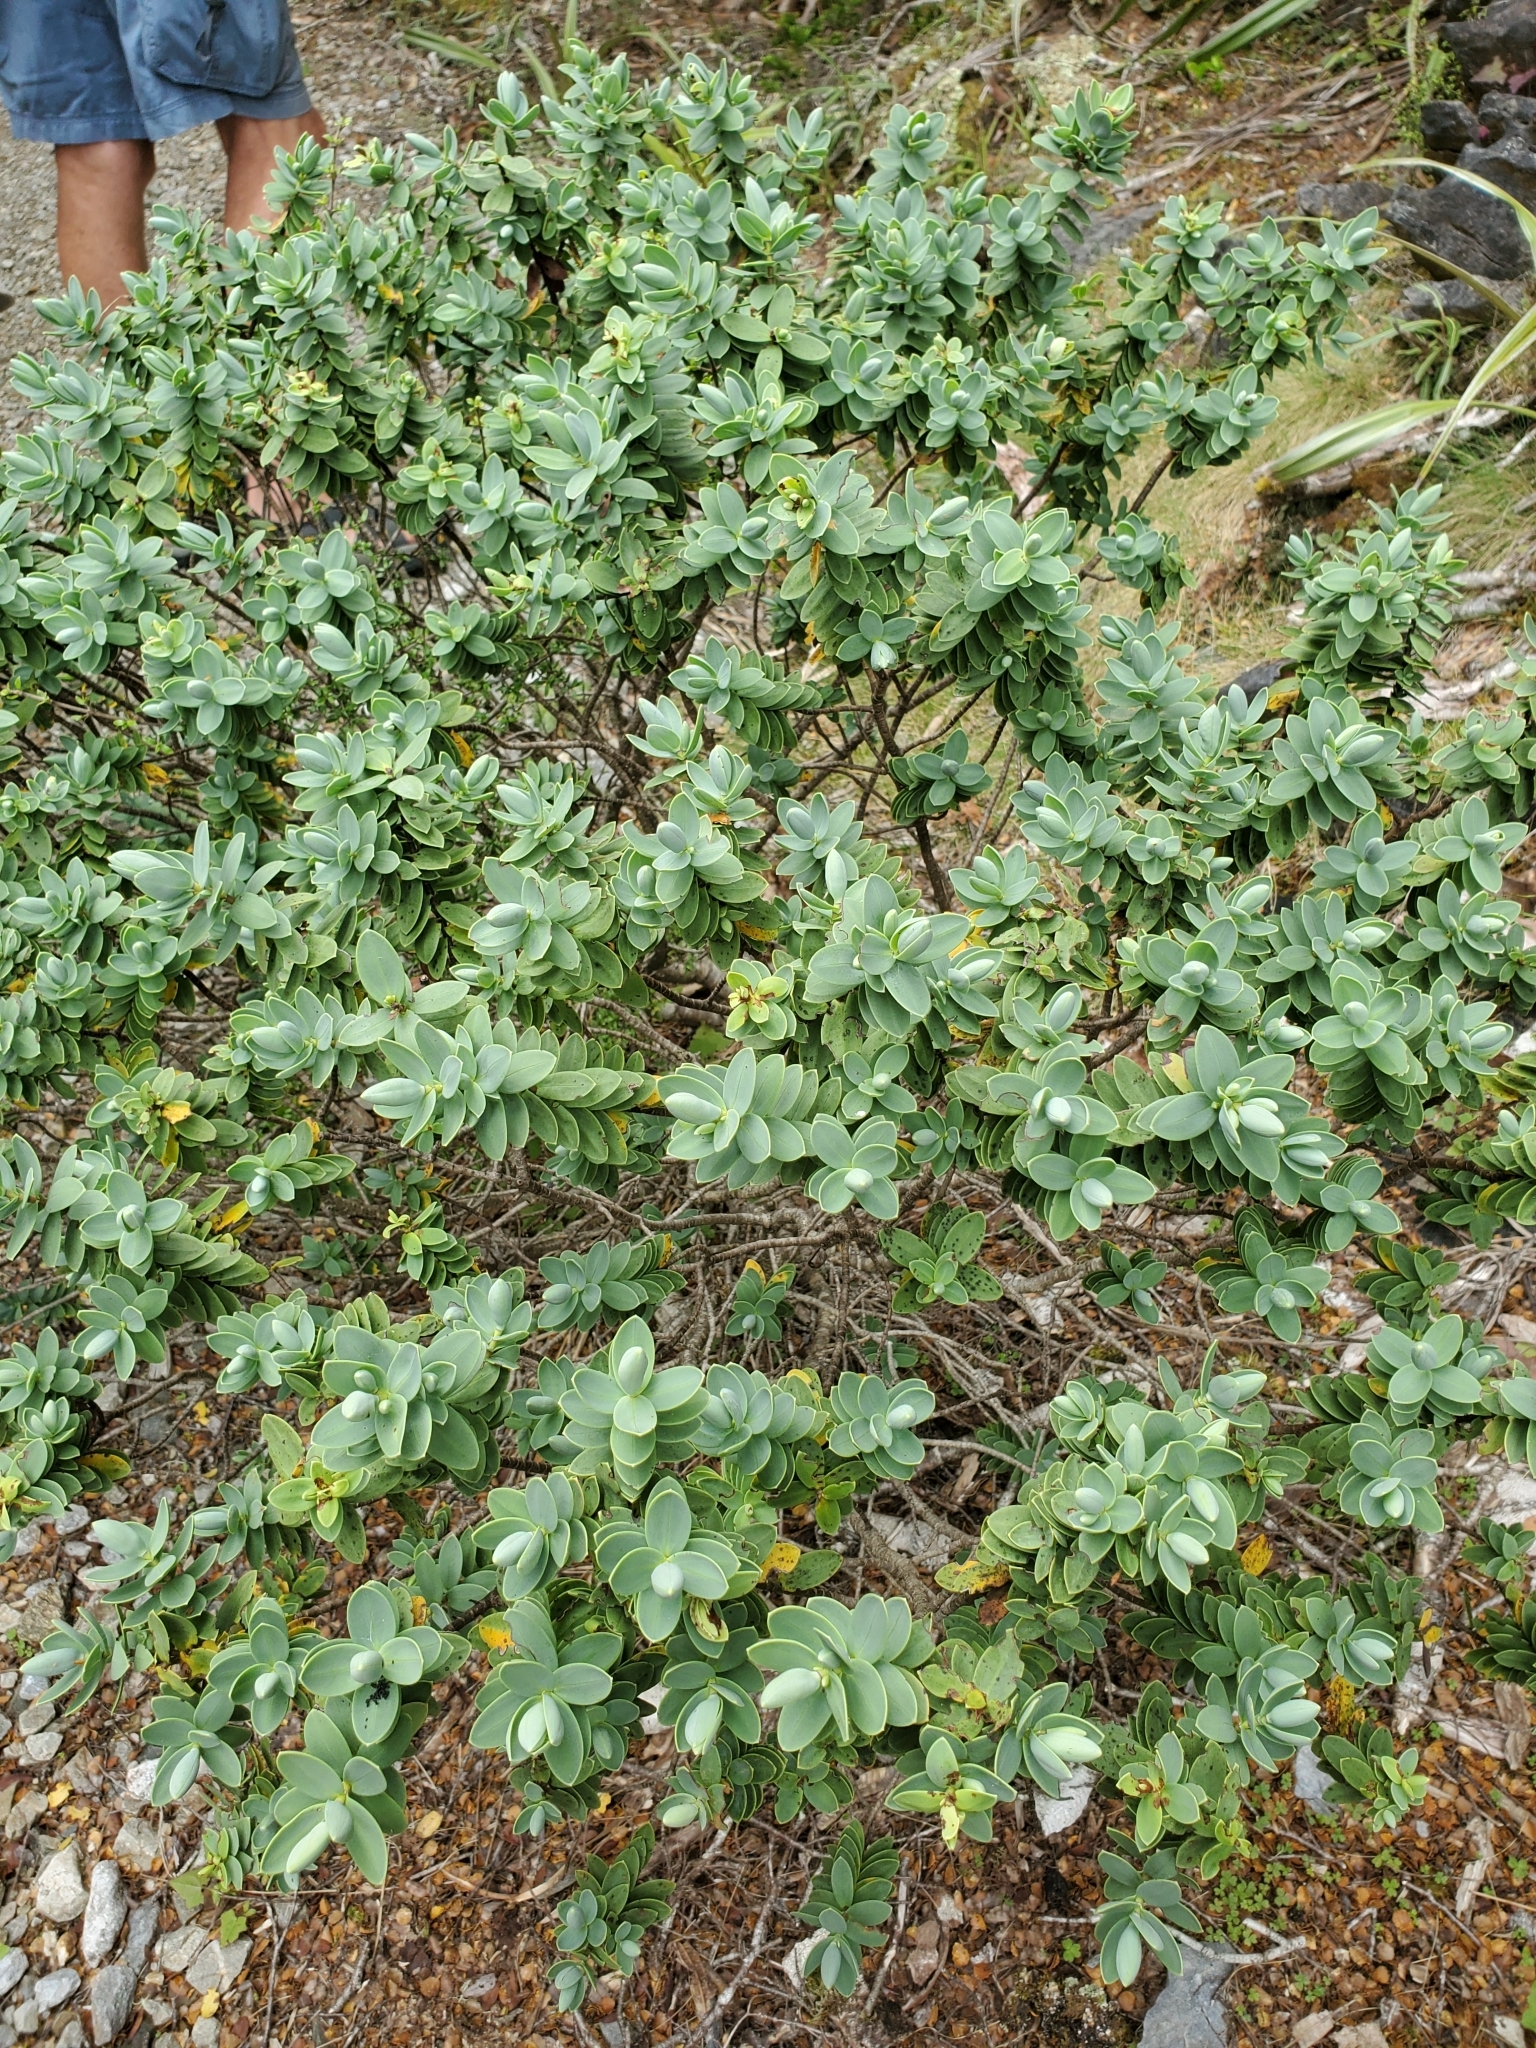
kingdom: Plantae
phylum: Tracheophyta
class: Magnoliopsida
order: Lamiales
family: Plantaginaceae
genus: Veronica
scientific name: Veronica topiaria
